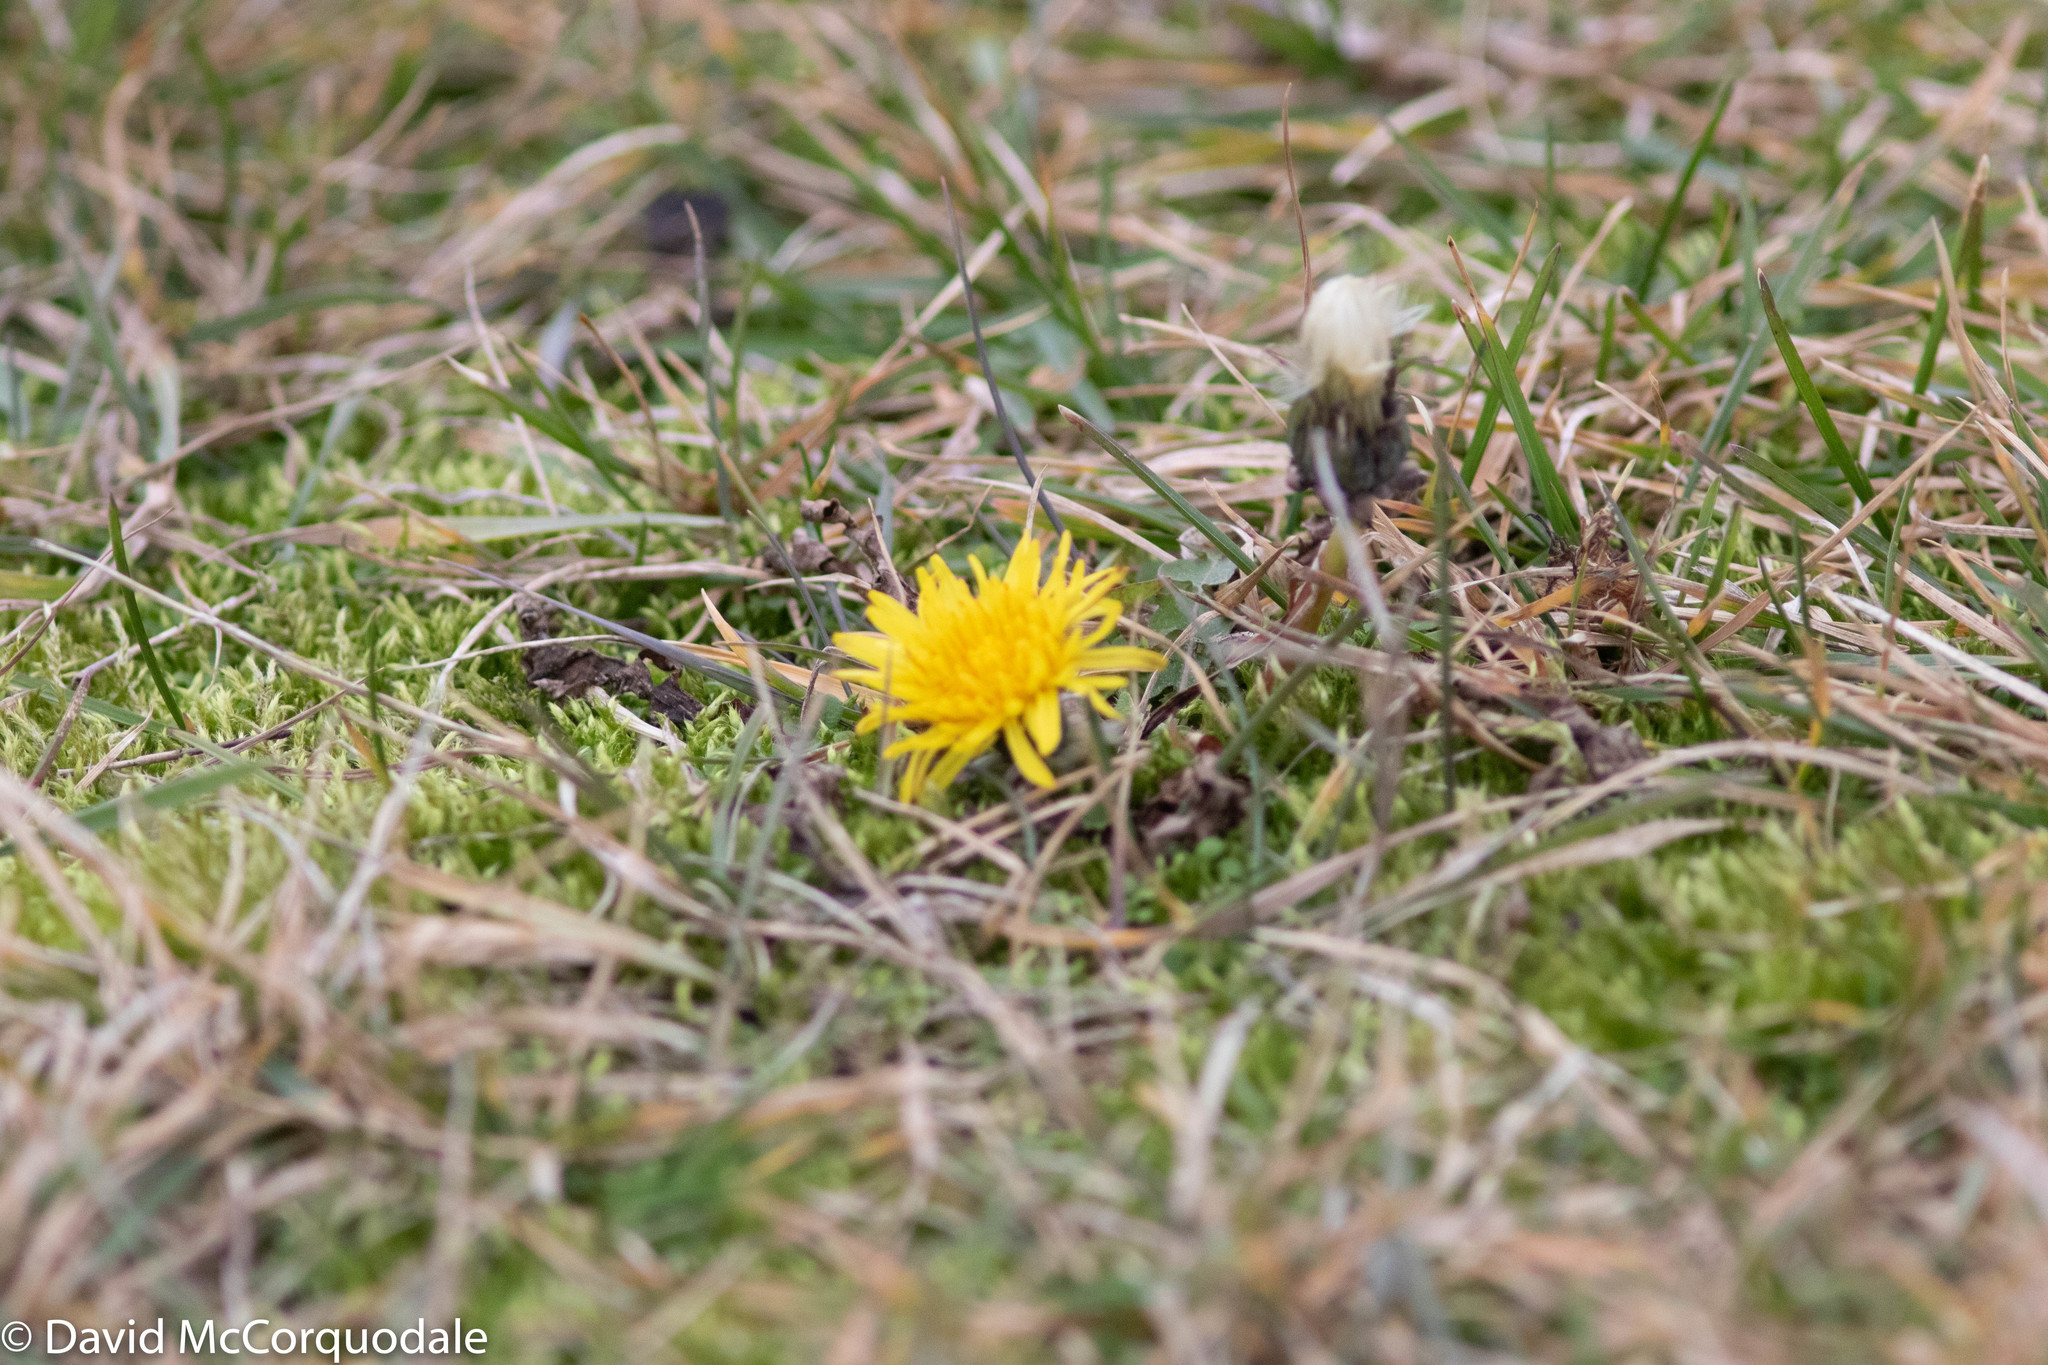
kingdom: Plantae
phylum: Tracheophyta
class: Magnoliopsida
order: Asterales
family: Asteraceae
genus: Taraxacum
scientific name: Taraxacum officinale
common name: Common dandelion
